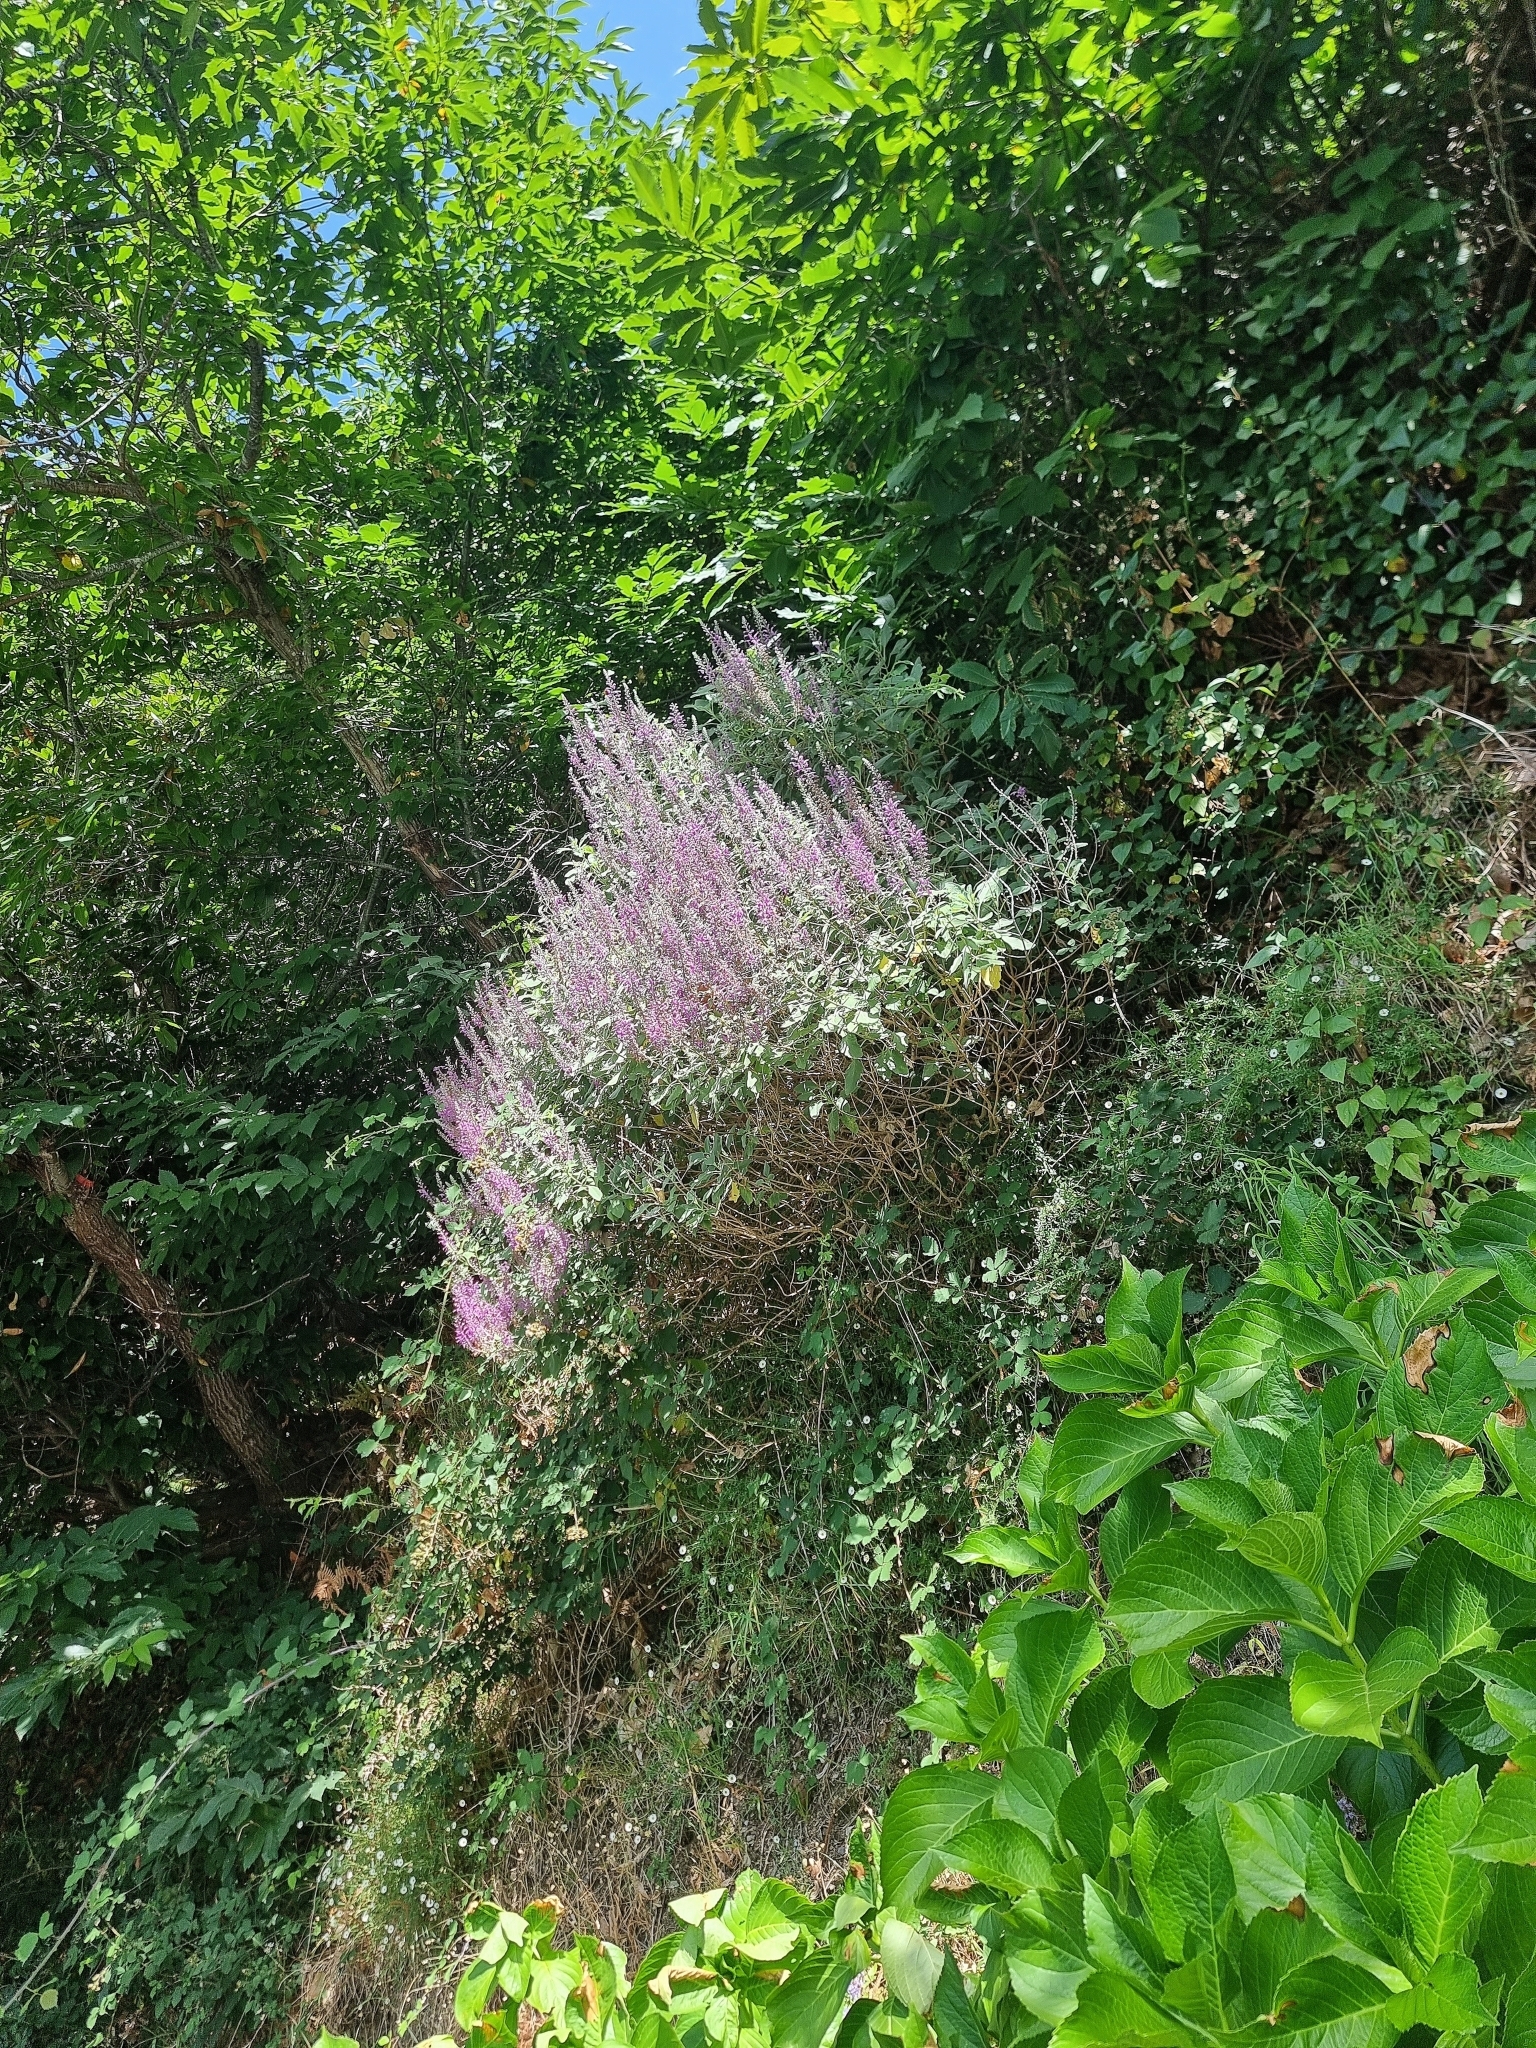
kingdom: Plantae
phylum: Tracheophyta
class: Magnoliopsida
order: Lamiales
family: Lamiaceae
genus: Teucrium
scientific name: Teucrium betonicum
